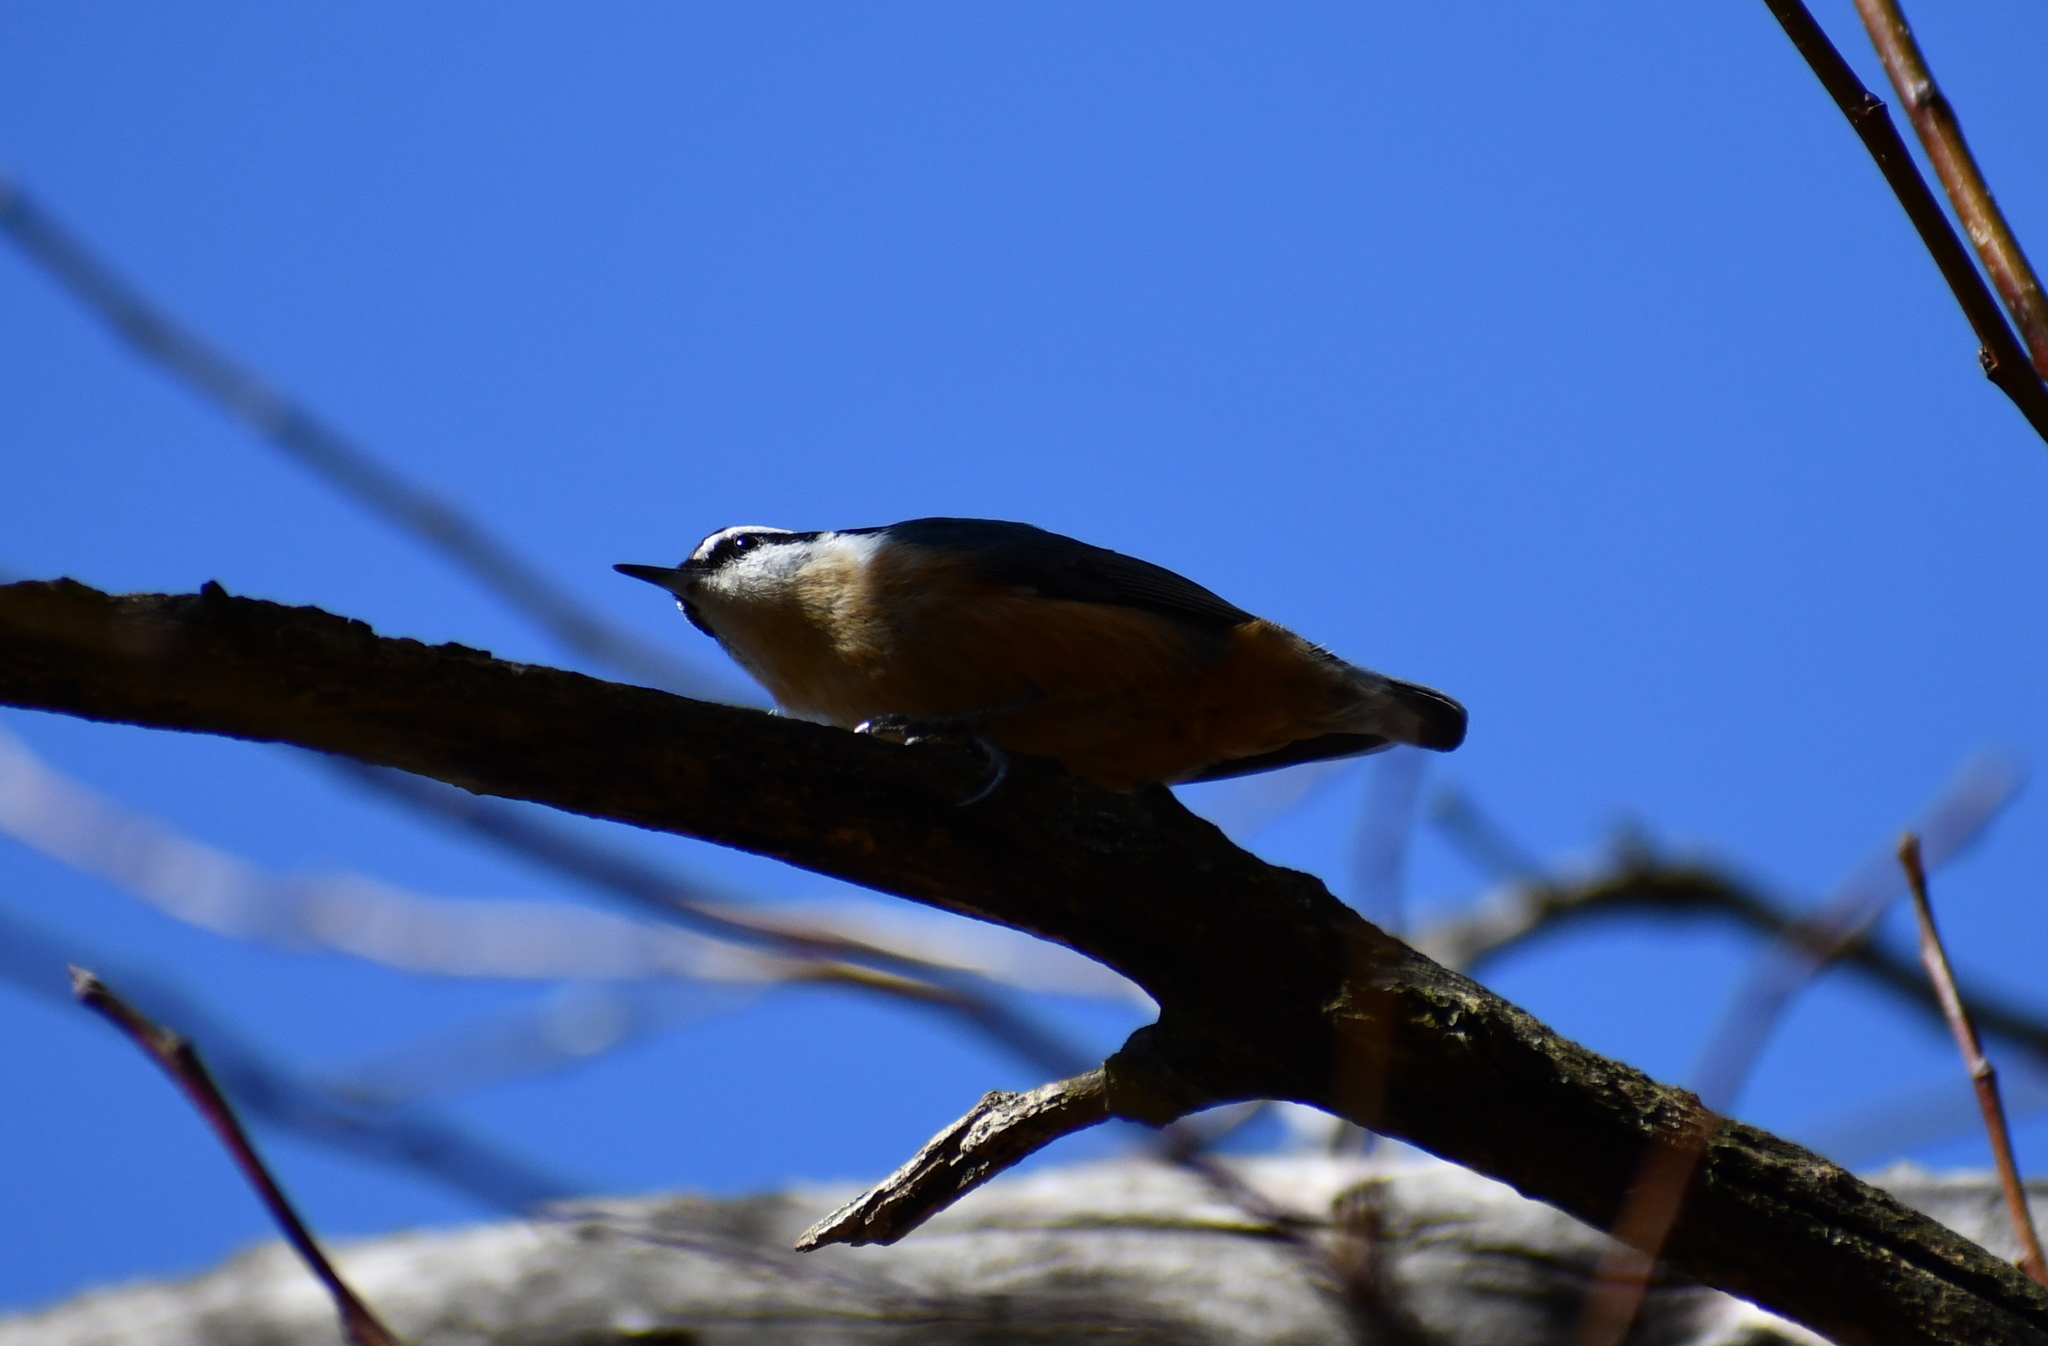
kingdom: Animalia
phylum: Chordata
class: Aves
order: Passeriformes
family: Sittidae
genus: Sitta
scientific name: Sitta canadensis
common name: Red-breasted nuthatch
